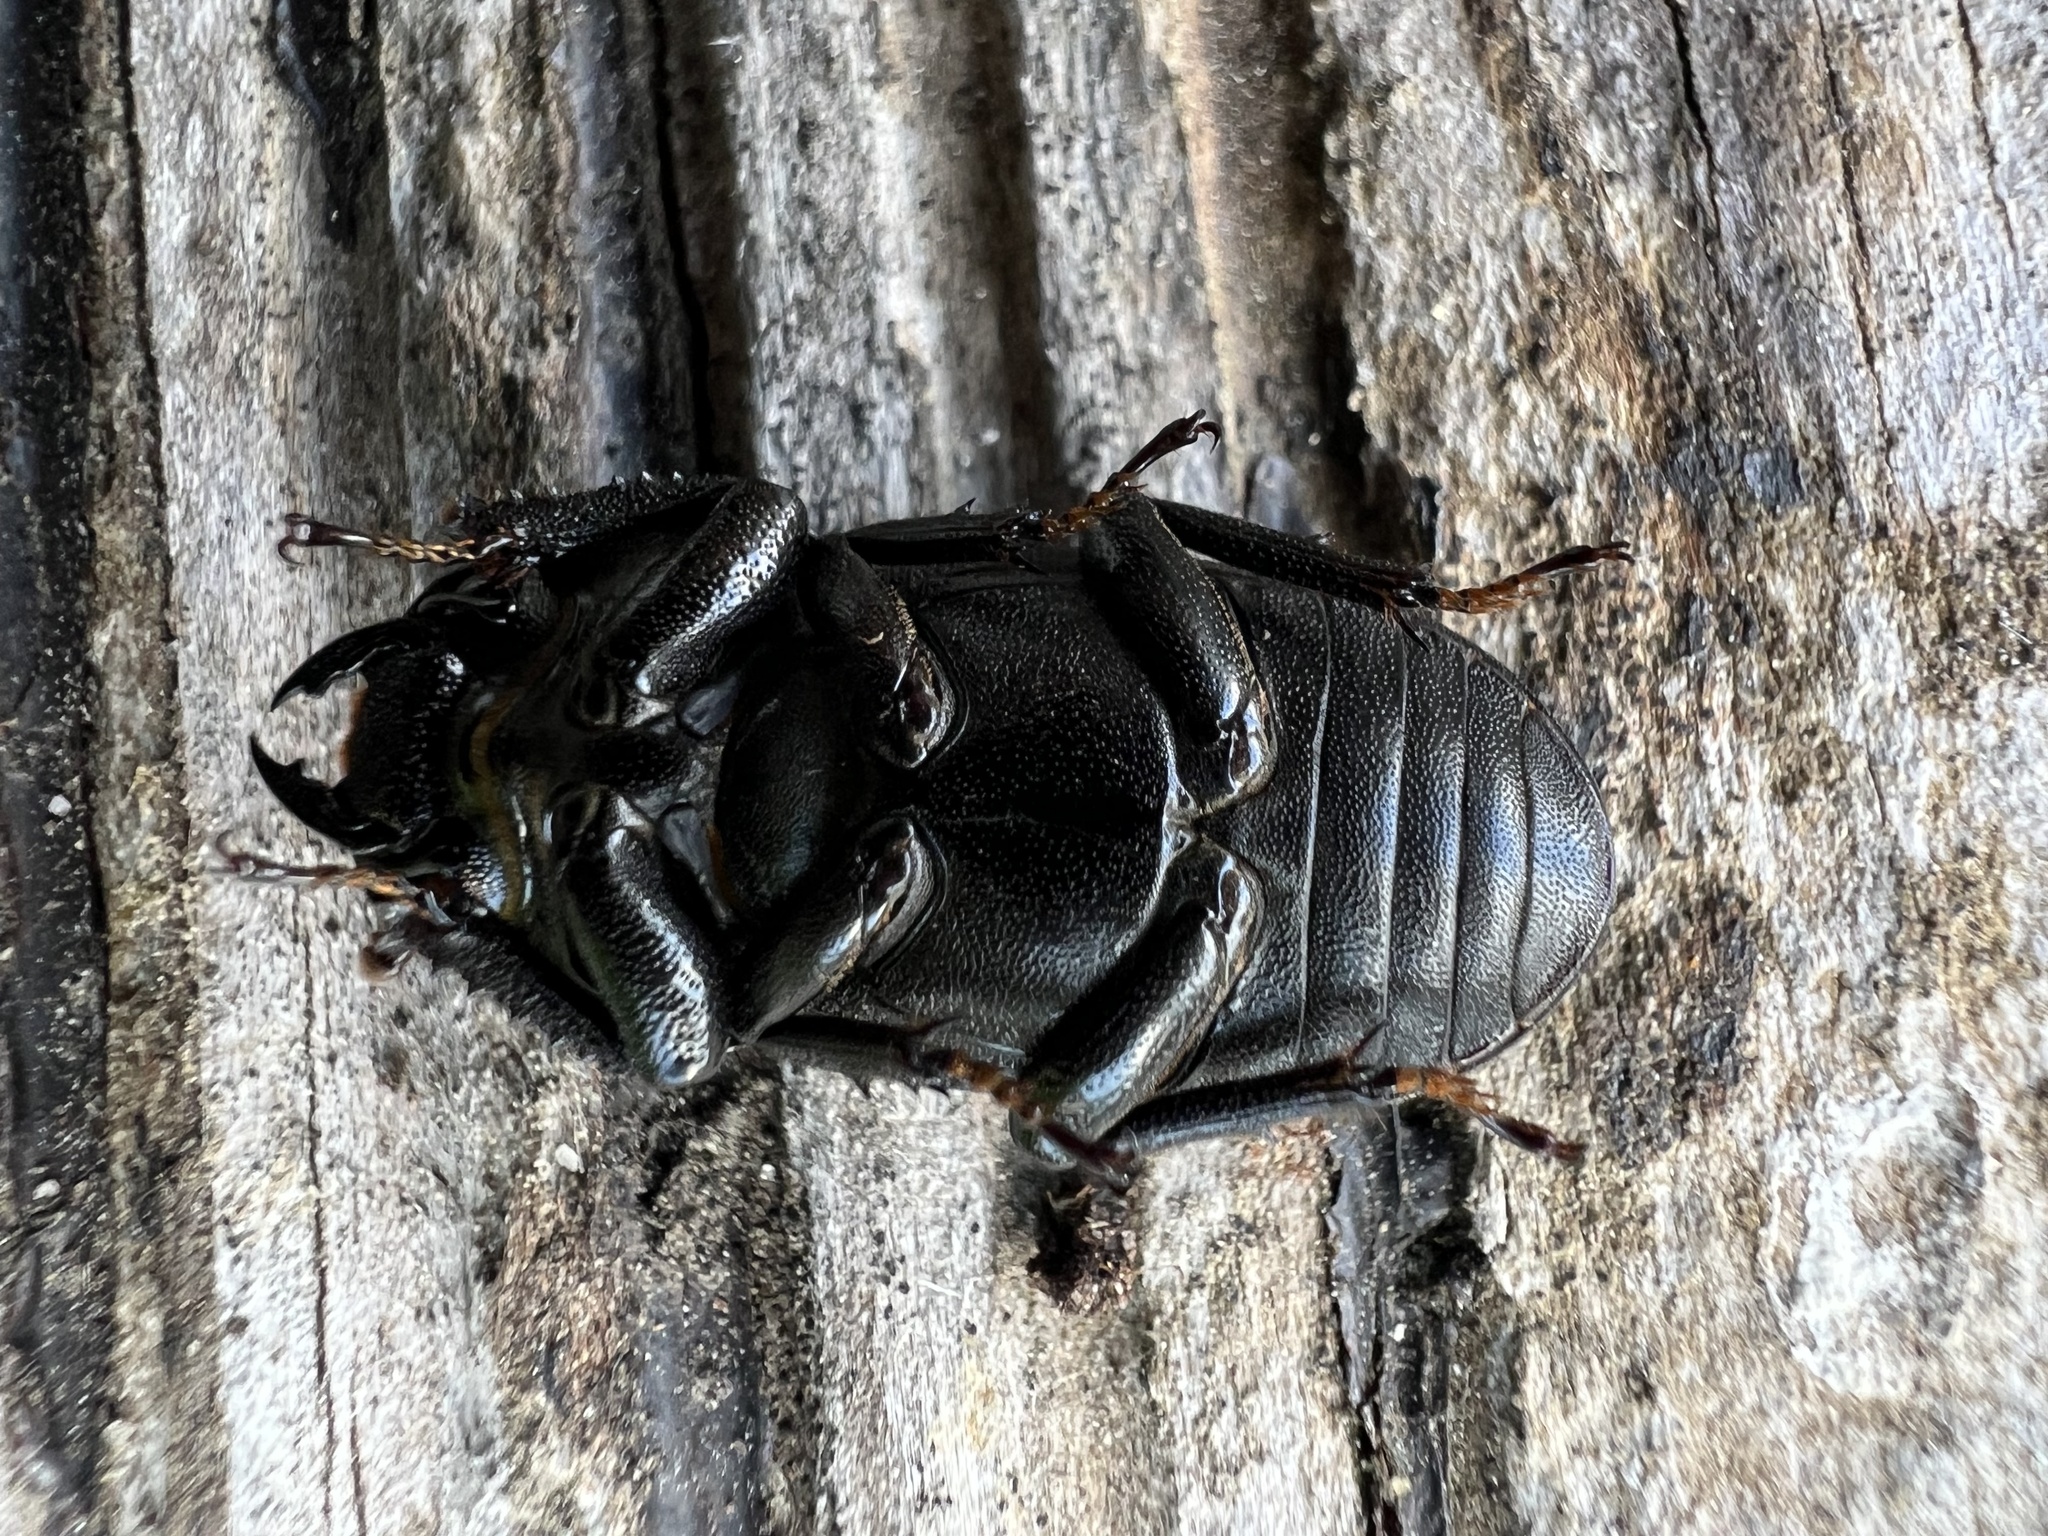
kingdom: Animalia
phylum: Arthropoda
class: Insecta
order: Coleoptera
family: Lucanidae
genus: Dorcus
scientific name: Dorcus parallelipipedus
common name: Lesser stag beetle
